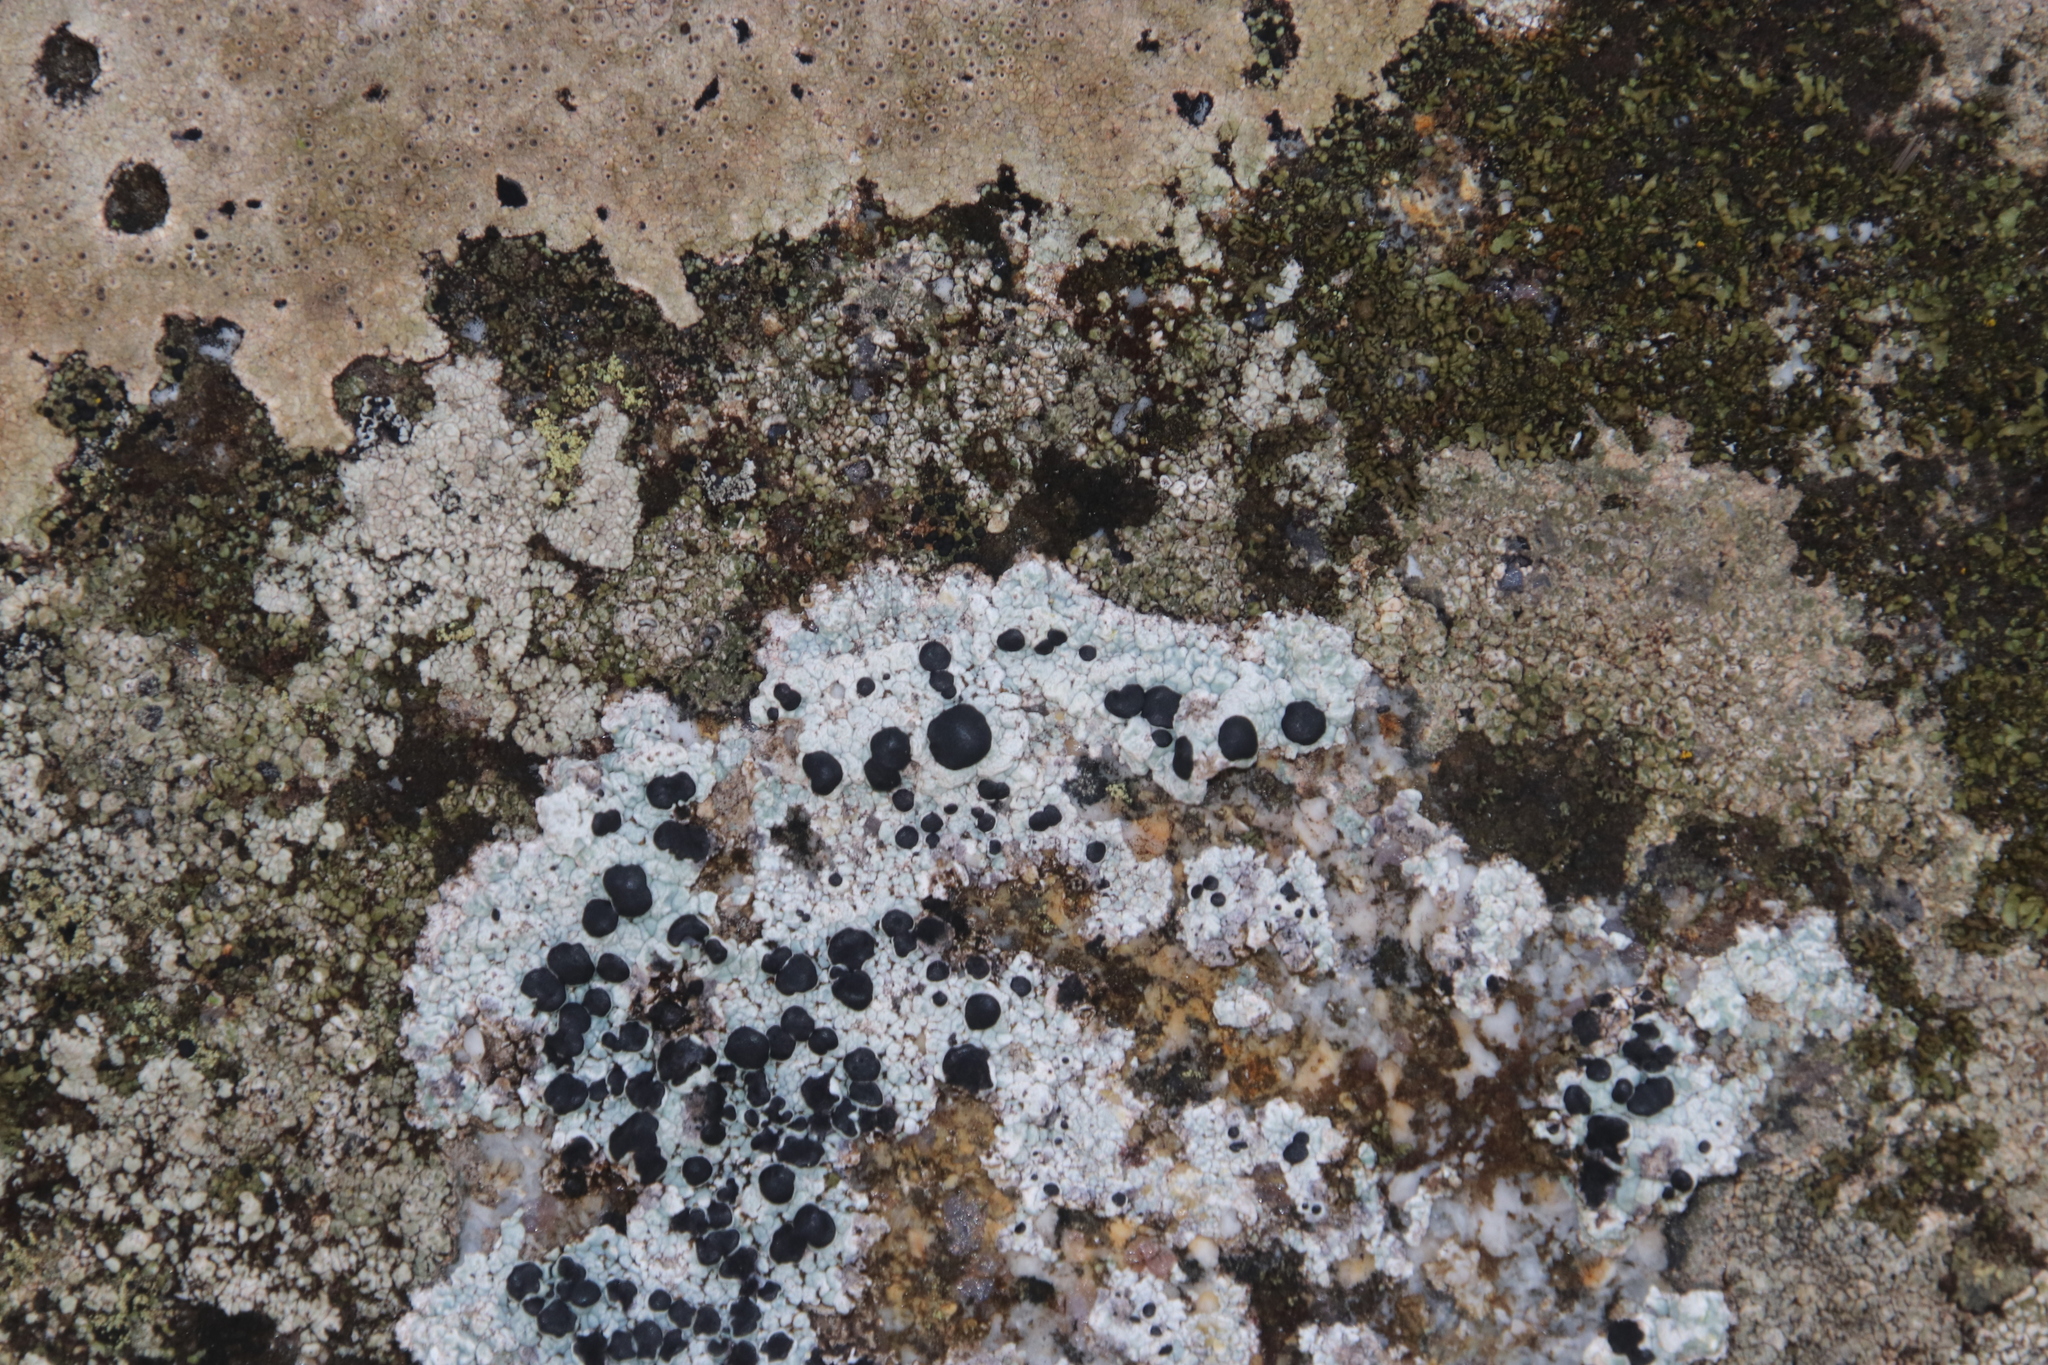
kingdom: Fungi
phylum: Ascomycota
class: Lecanoromycetes
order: Lecanorales
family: Tephromelataceae
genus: Tephromela
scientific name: Tephromela atra
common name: Black shields
